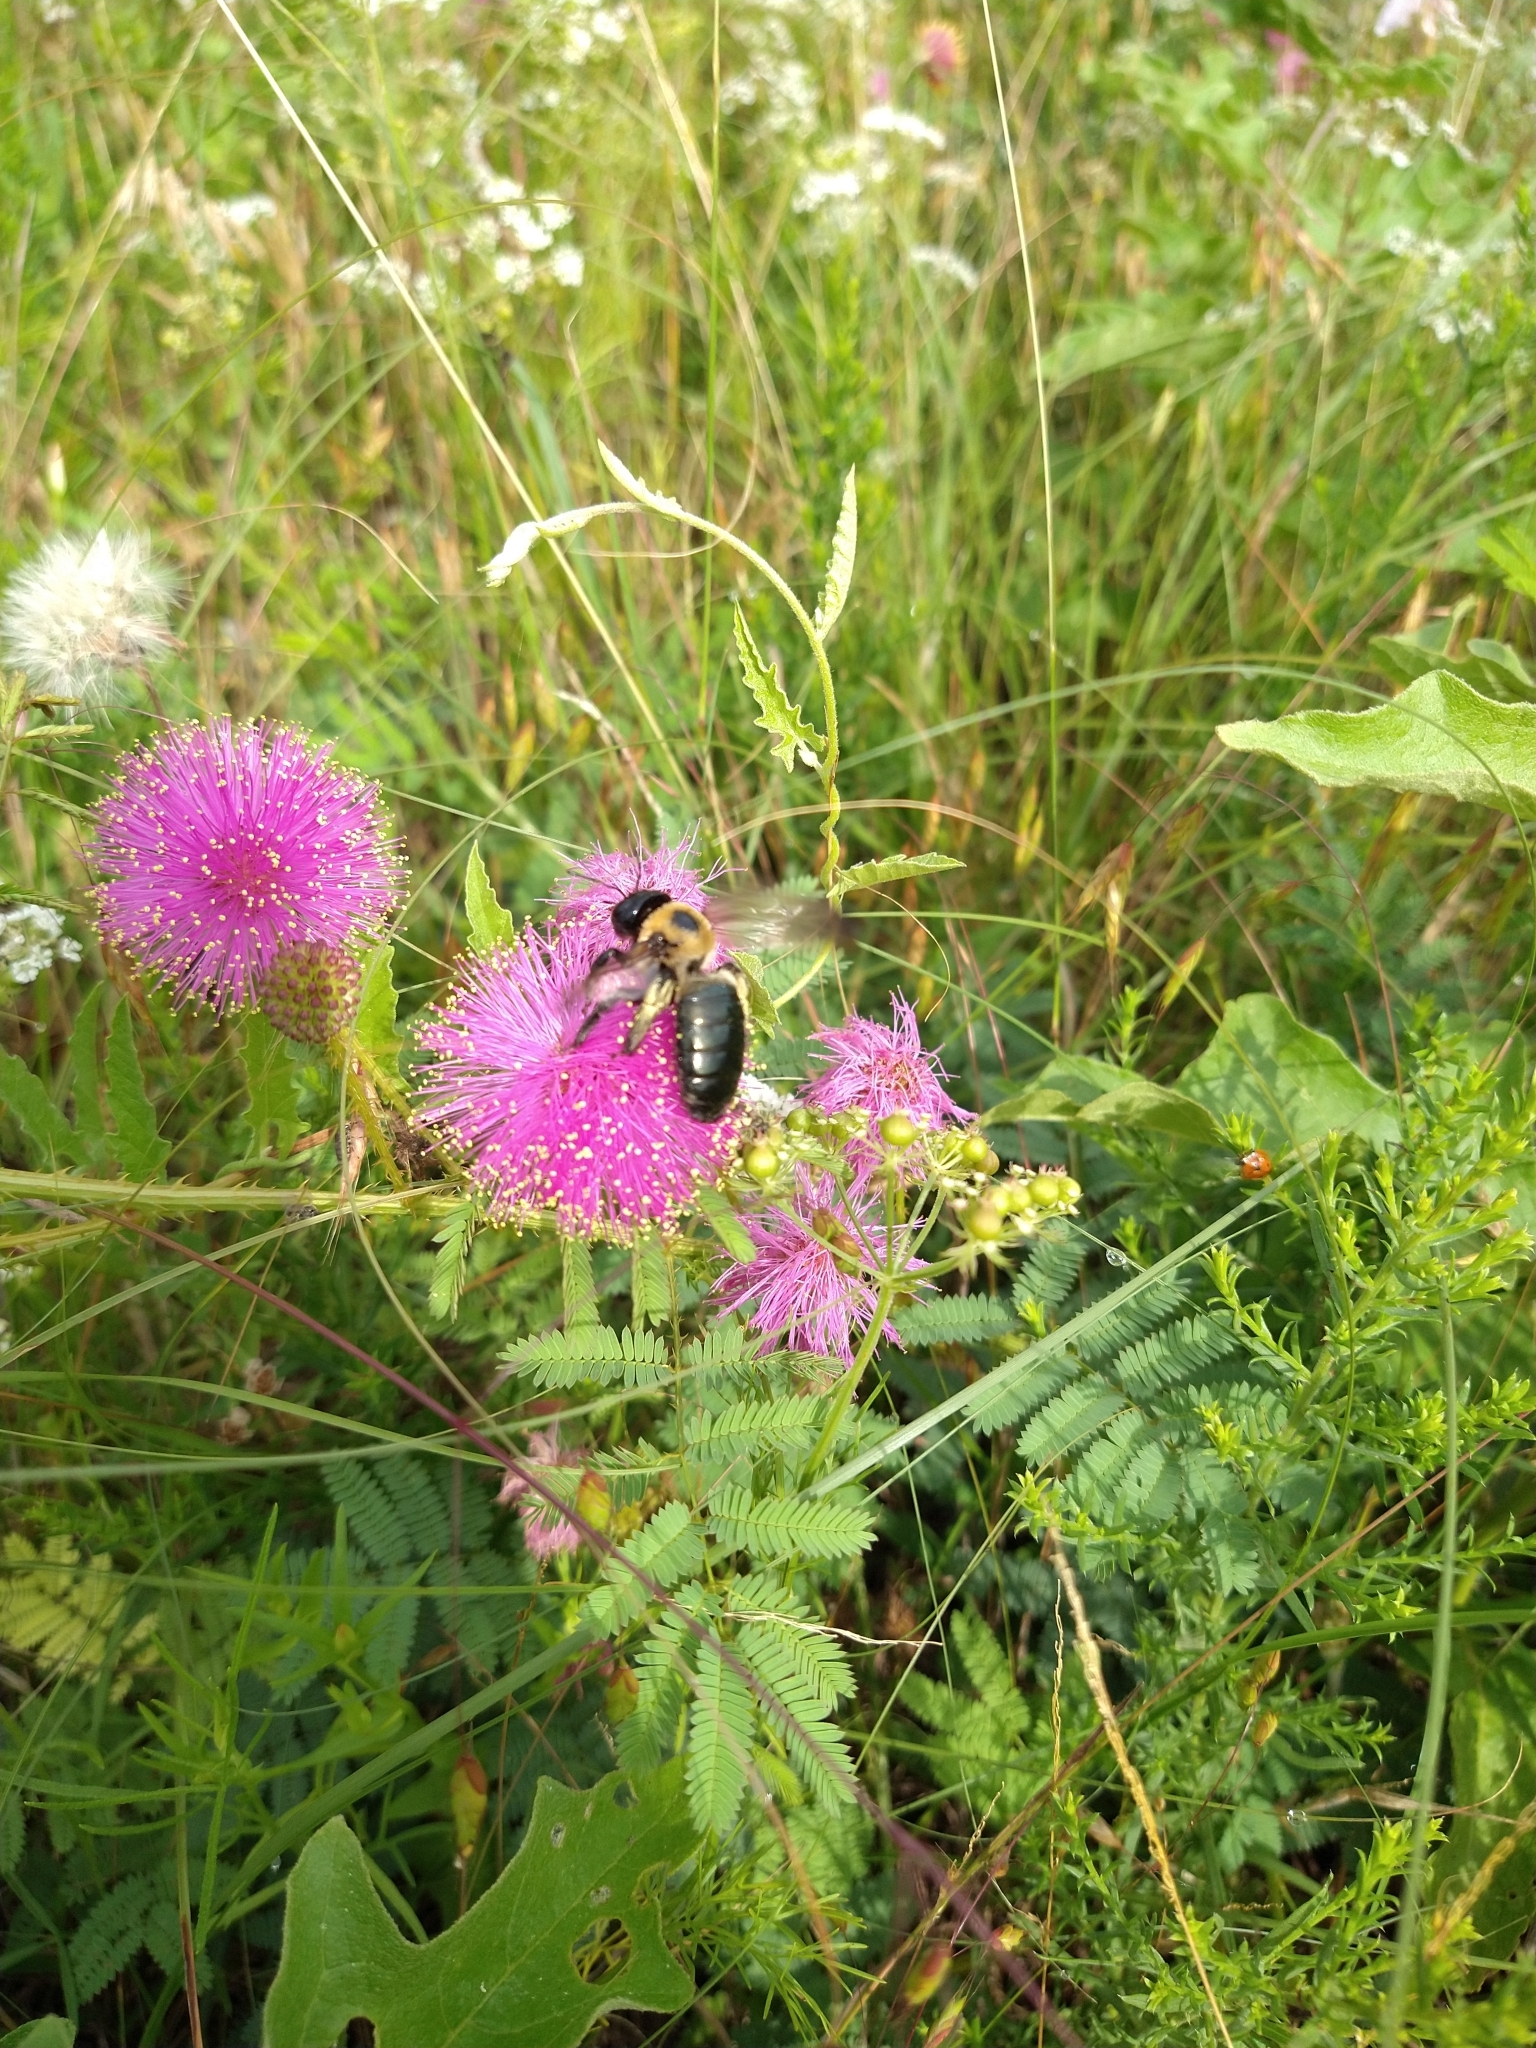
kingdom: Animalia
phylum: Arthropoda
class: Insecta
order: Hymenoptera
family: Apidae
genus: Xylocopa
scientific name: Xylocopa virginica
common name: Carpenter bee
